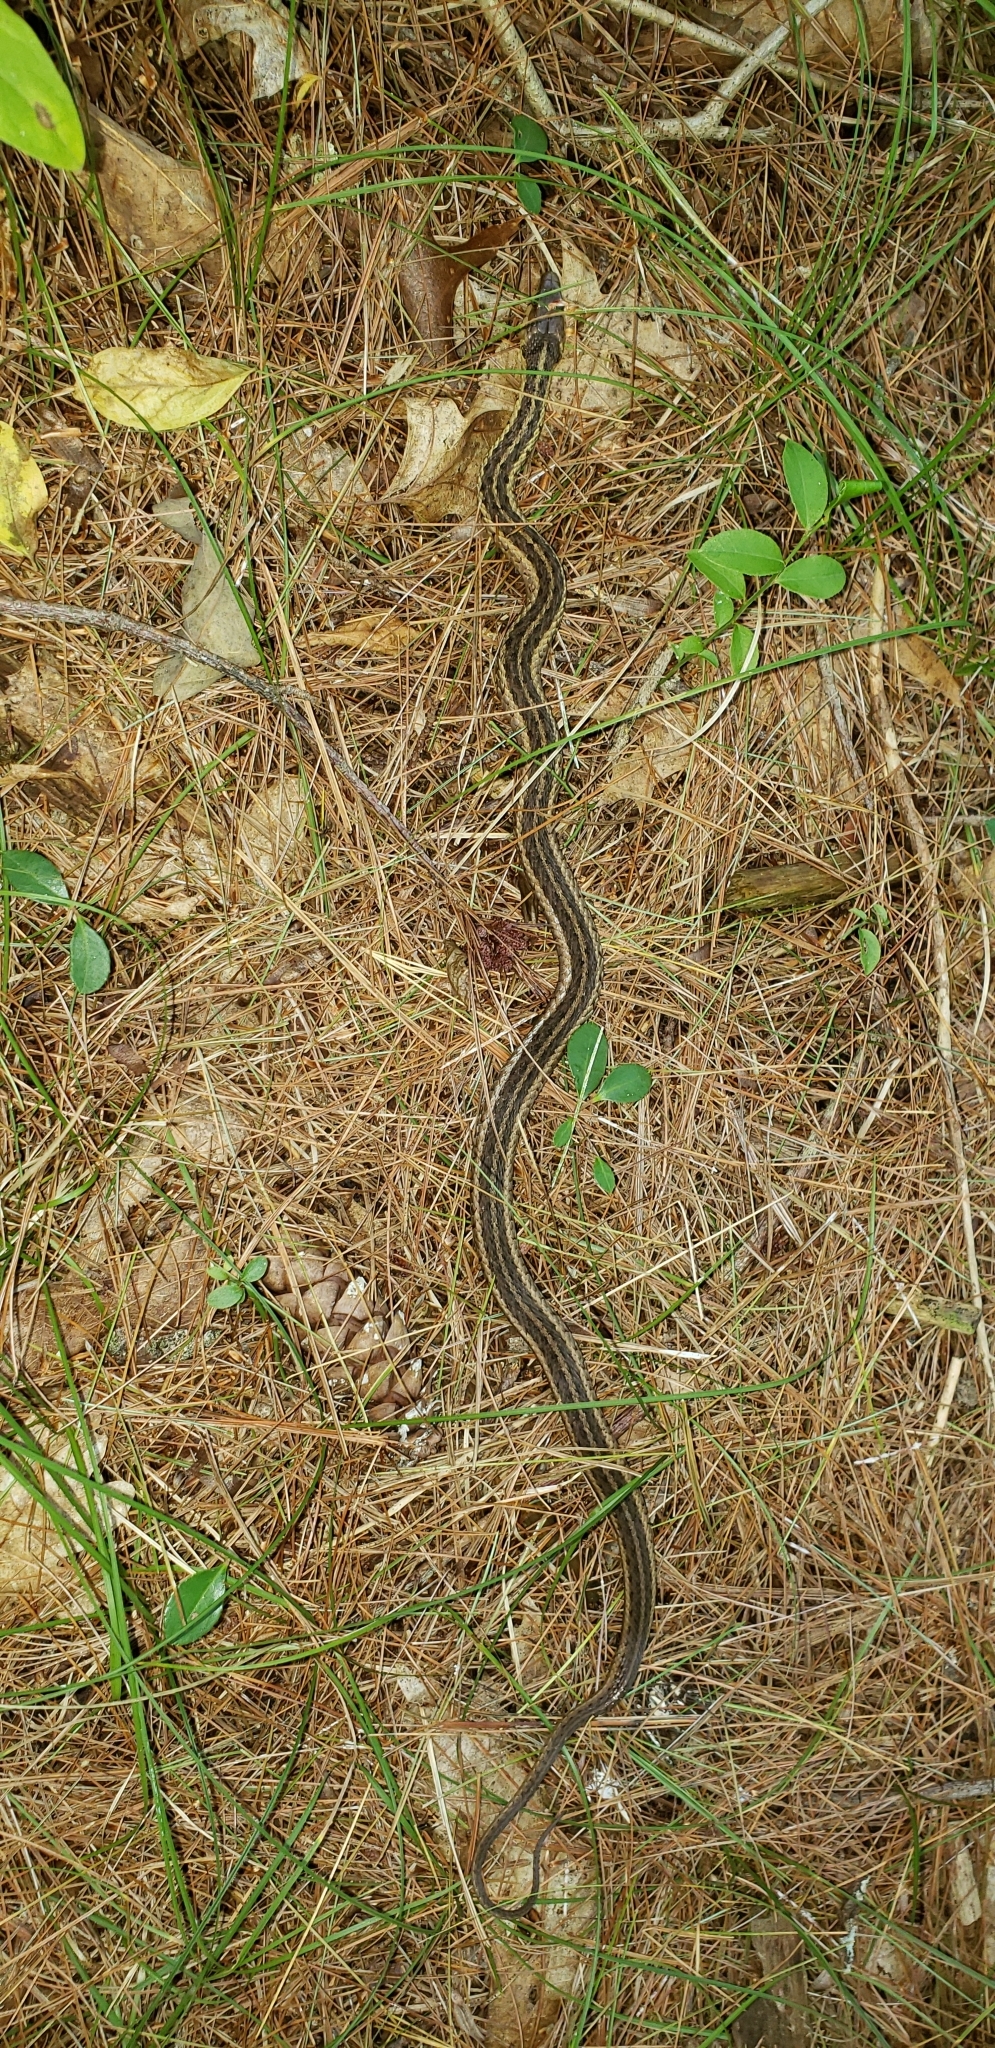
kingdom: Animalia
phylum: Chordata
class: Squamata
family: Colubridae
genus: Thamnophis
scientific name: Thamnophis sirtalis
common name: Common garter snake
